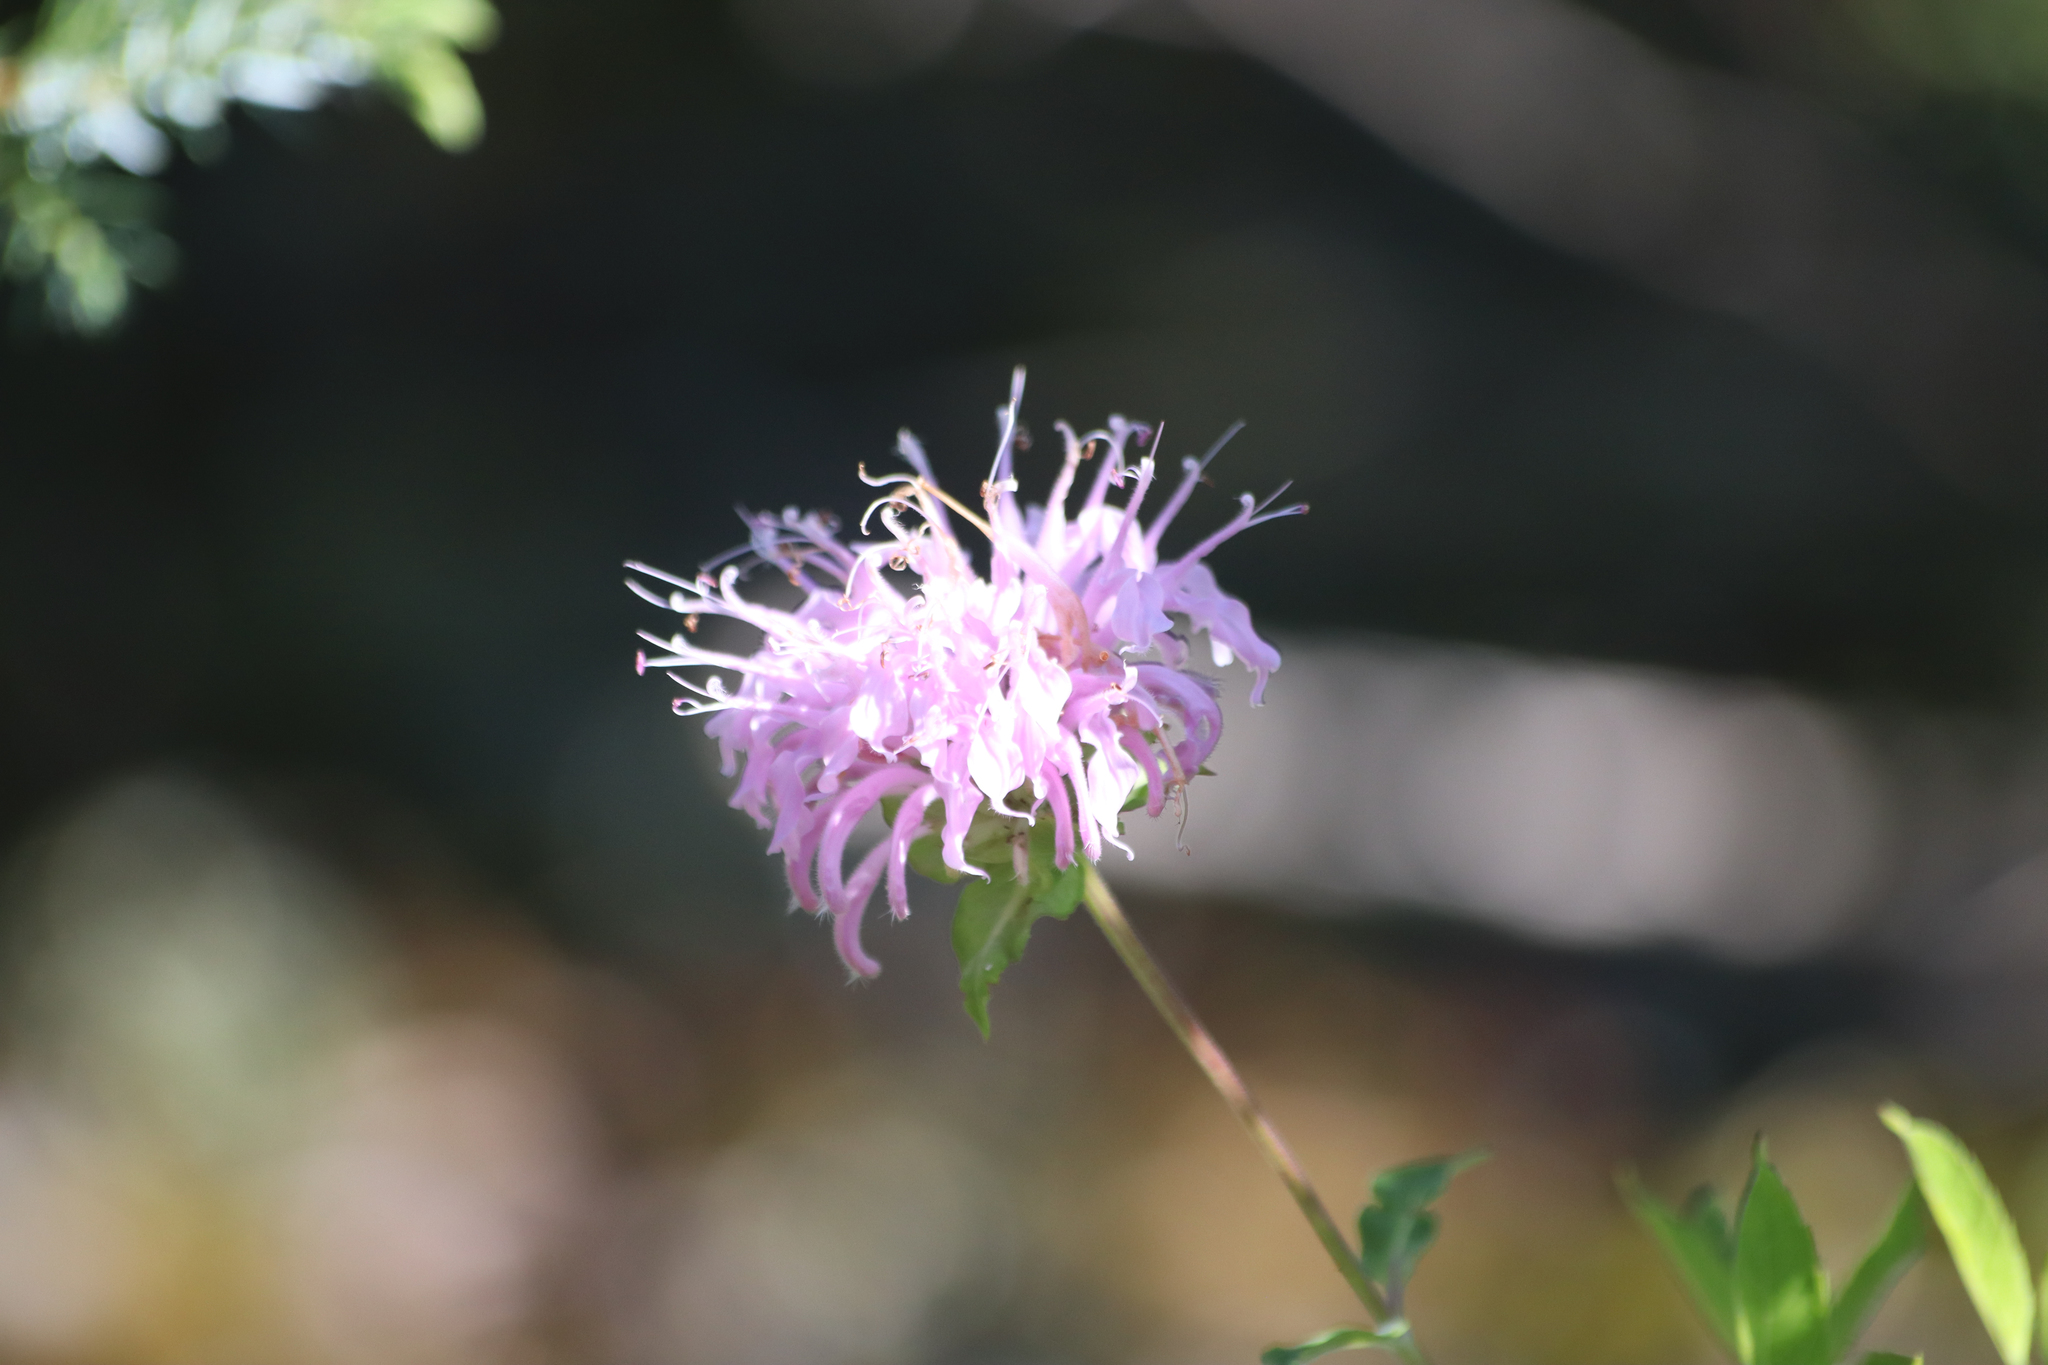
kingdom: Plantae
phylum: Tracheophyta
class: Magnoliopsida
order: Lamiales
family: Lamiaceae
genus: Monarda
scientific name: Monarda fistulosa
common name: Purple beebalm
